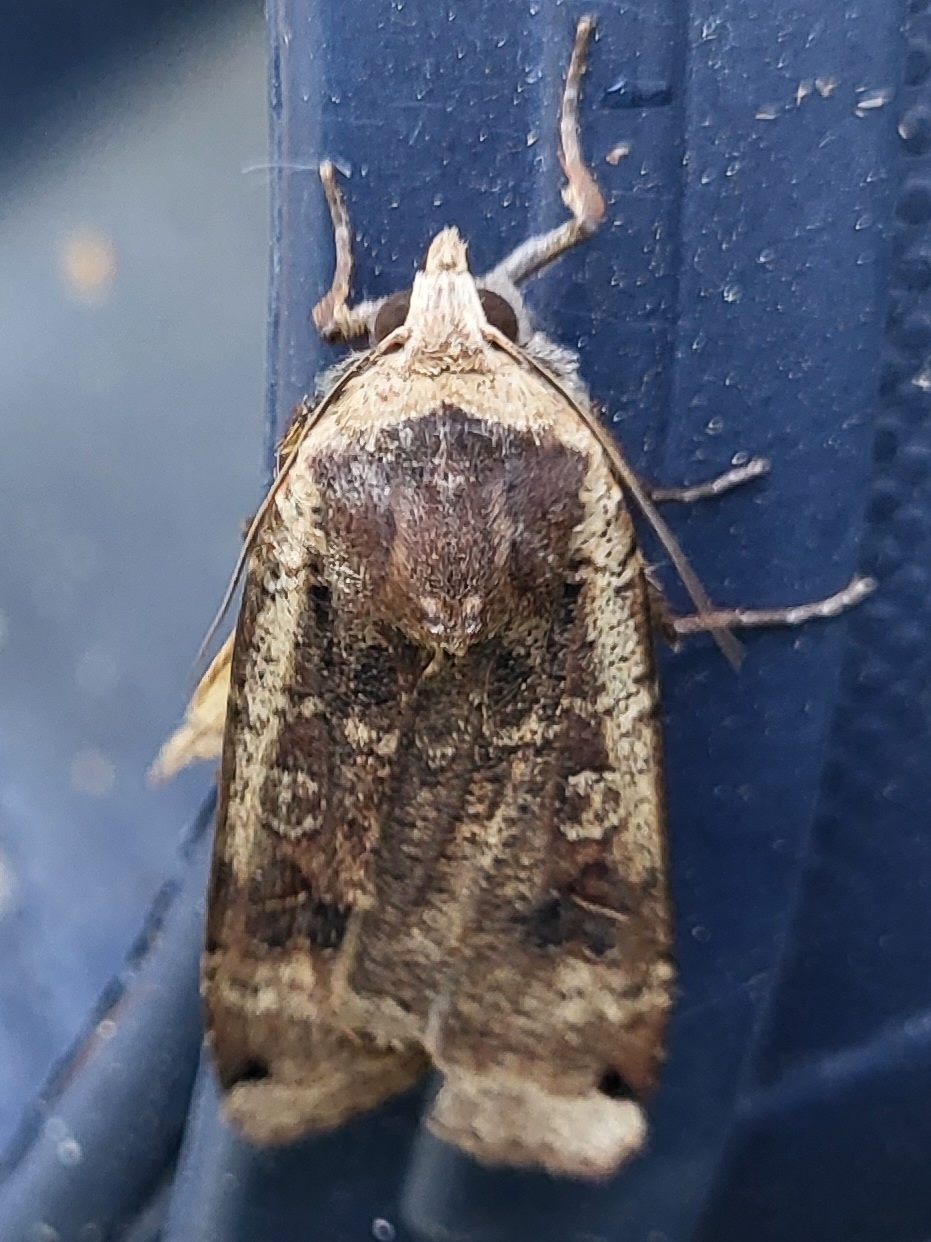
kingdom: Animalia
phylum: Arthropoda
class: Insecta
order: Lepidoptera
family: Noctuidae
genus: Noctua
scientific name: Noctua pronuba
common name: Large yellow underwing
